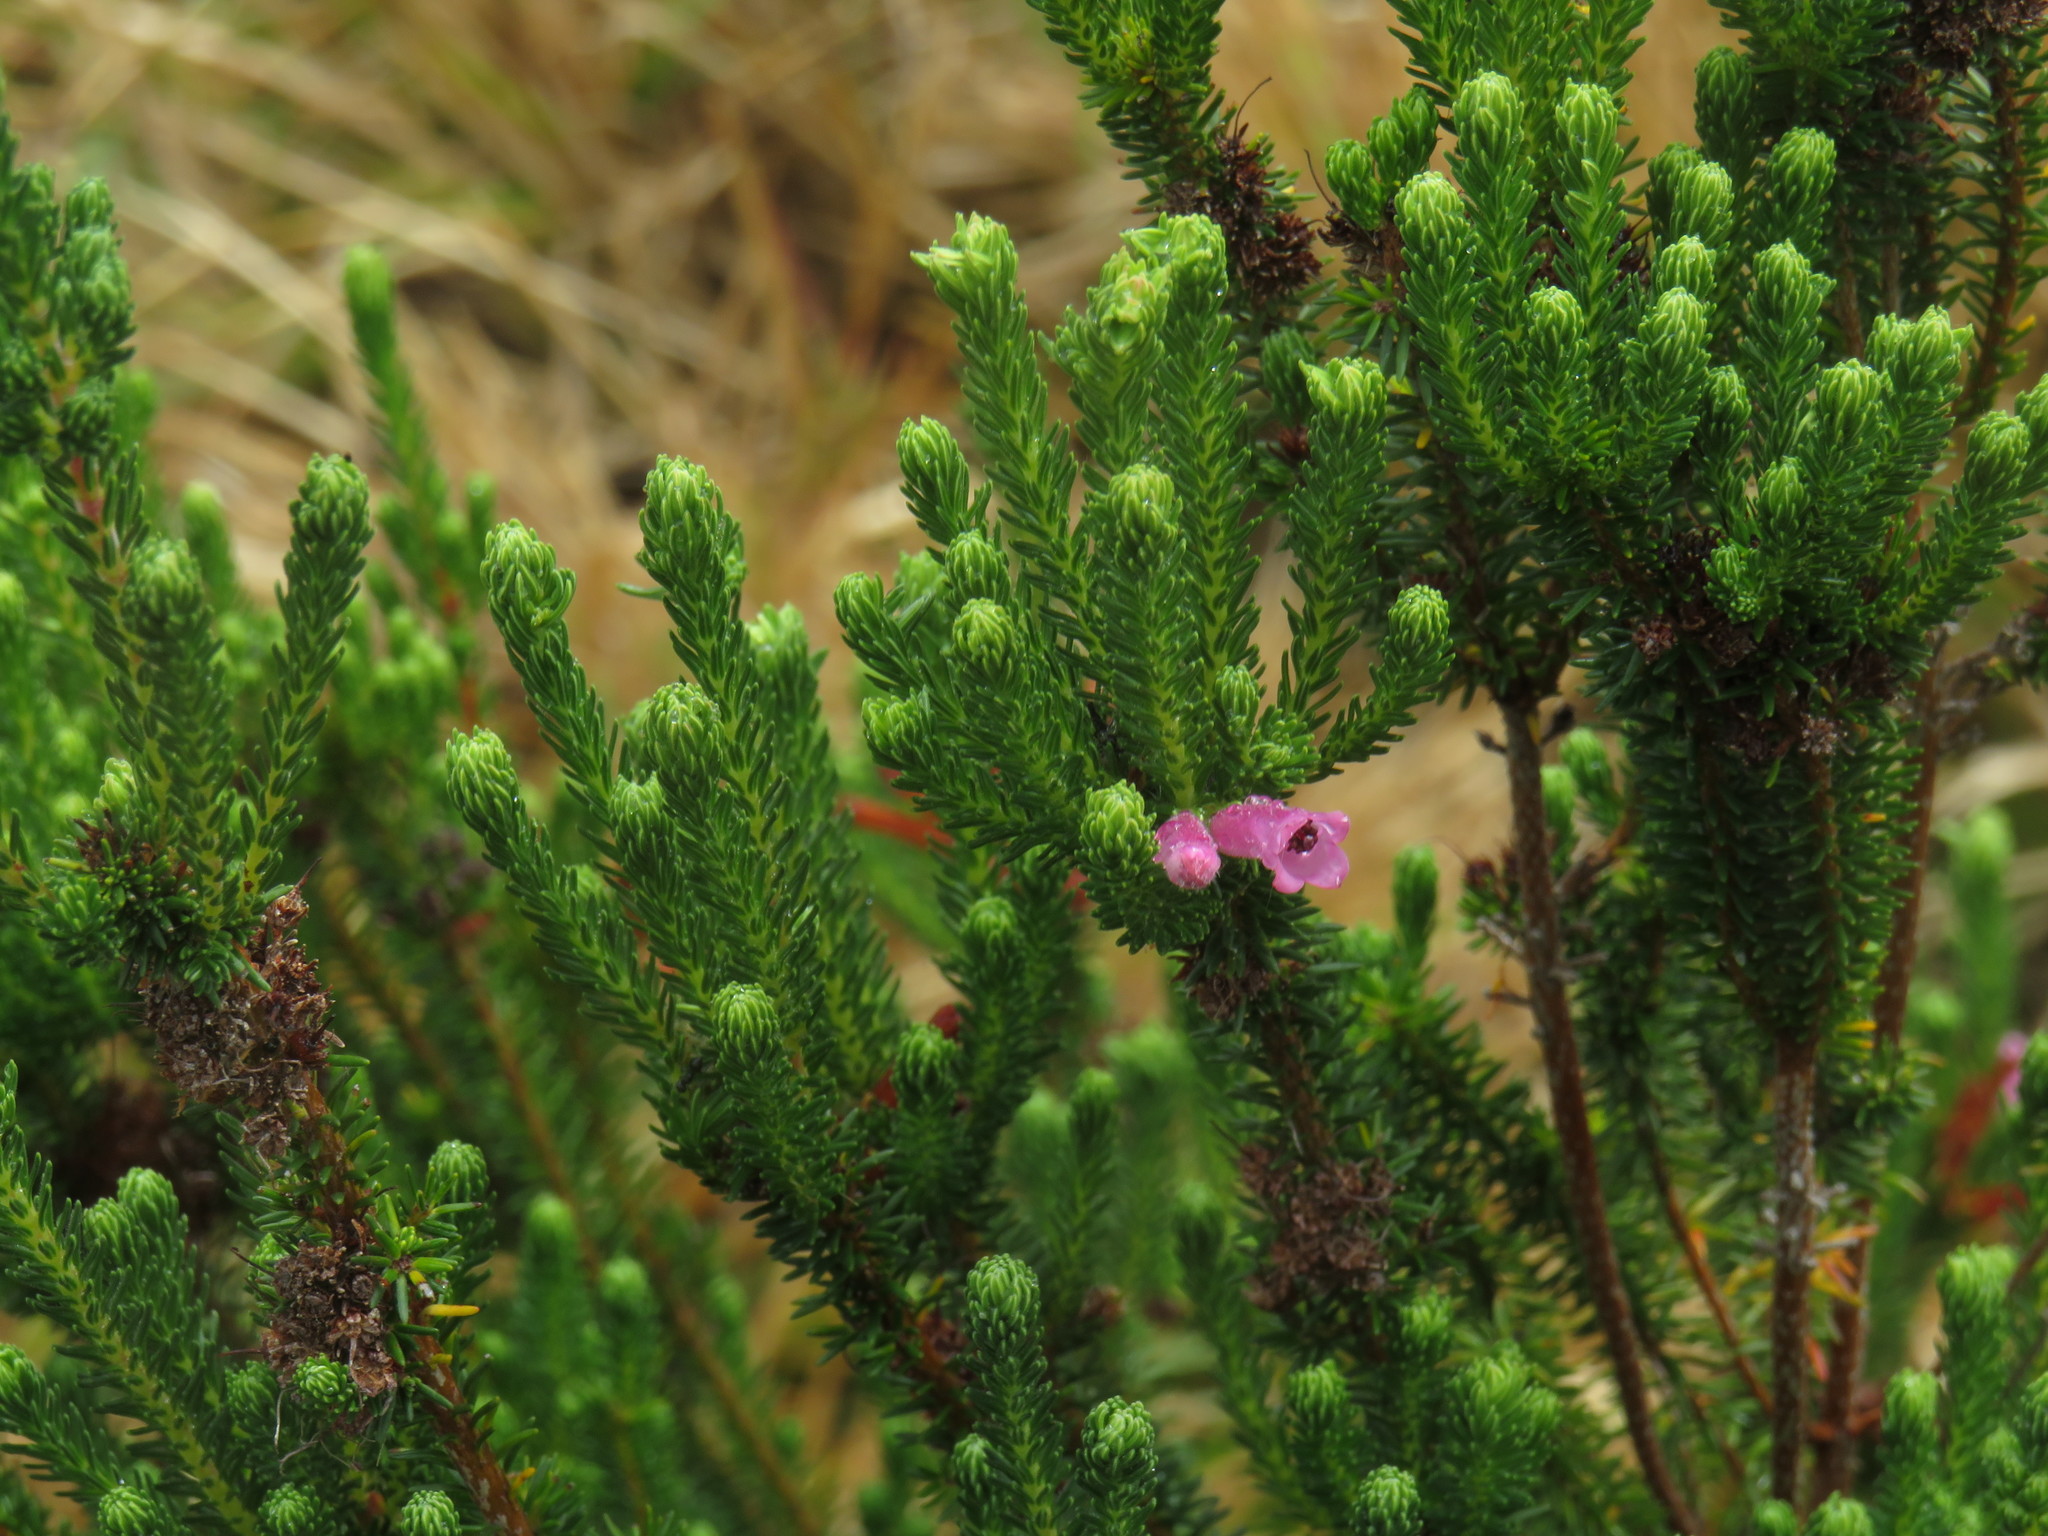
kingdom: Plantae
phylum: Tracheophyta
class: Magnoliopsida
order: Ericales
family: Ericaceae
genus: Erica
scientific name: Erica verticillata
